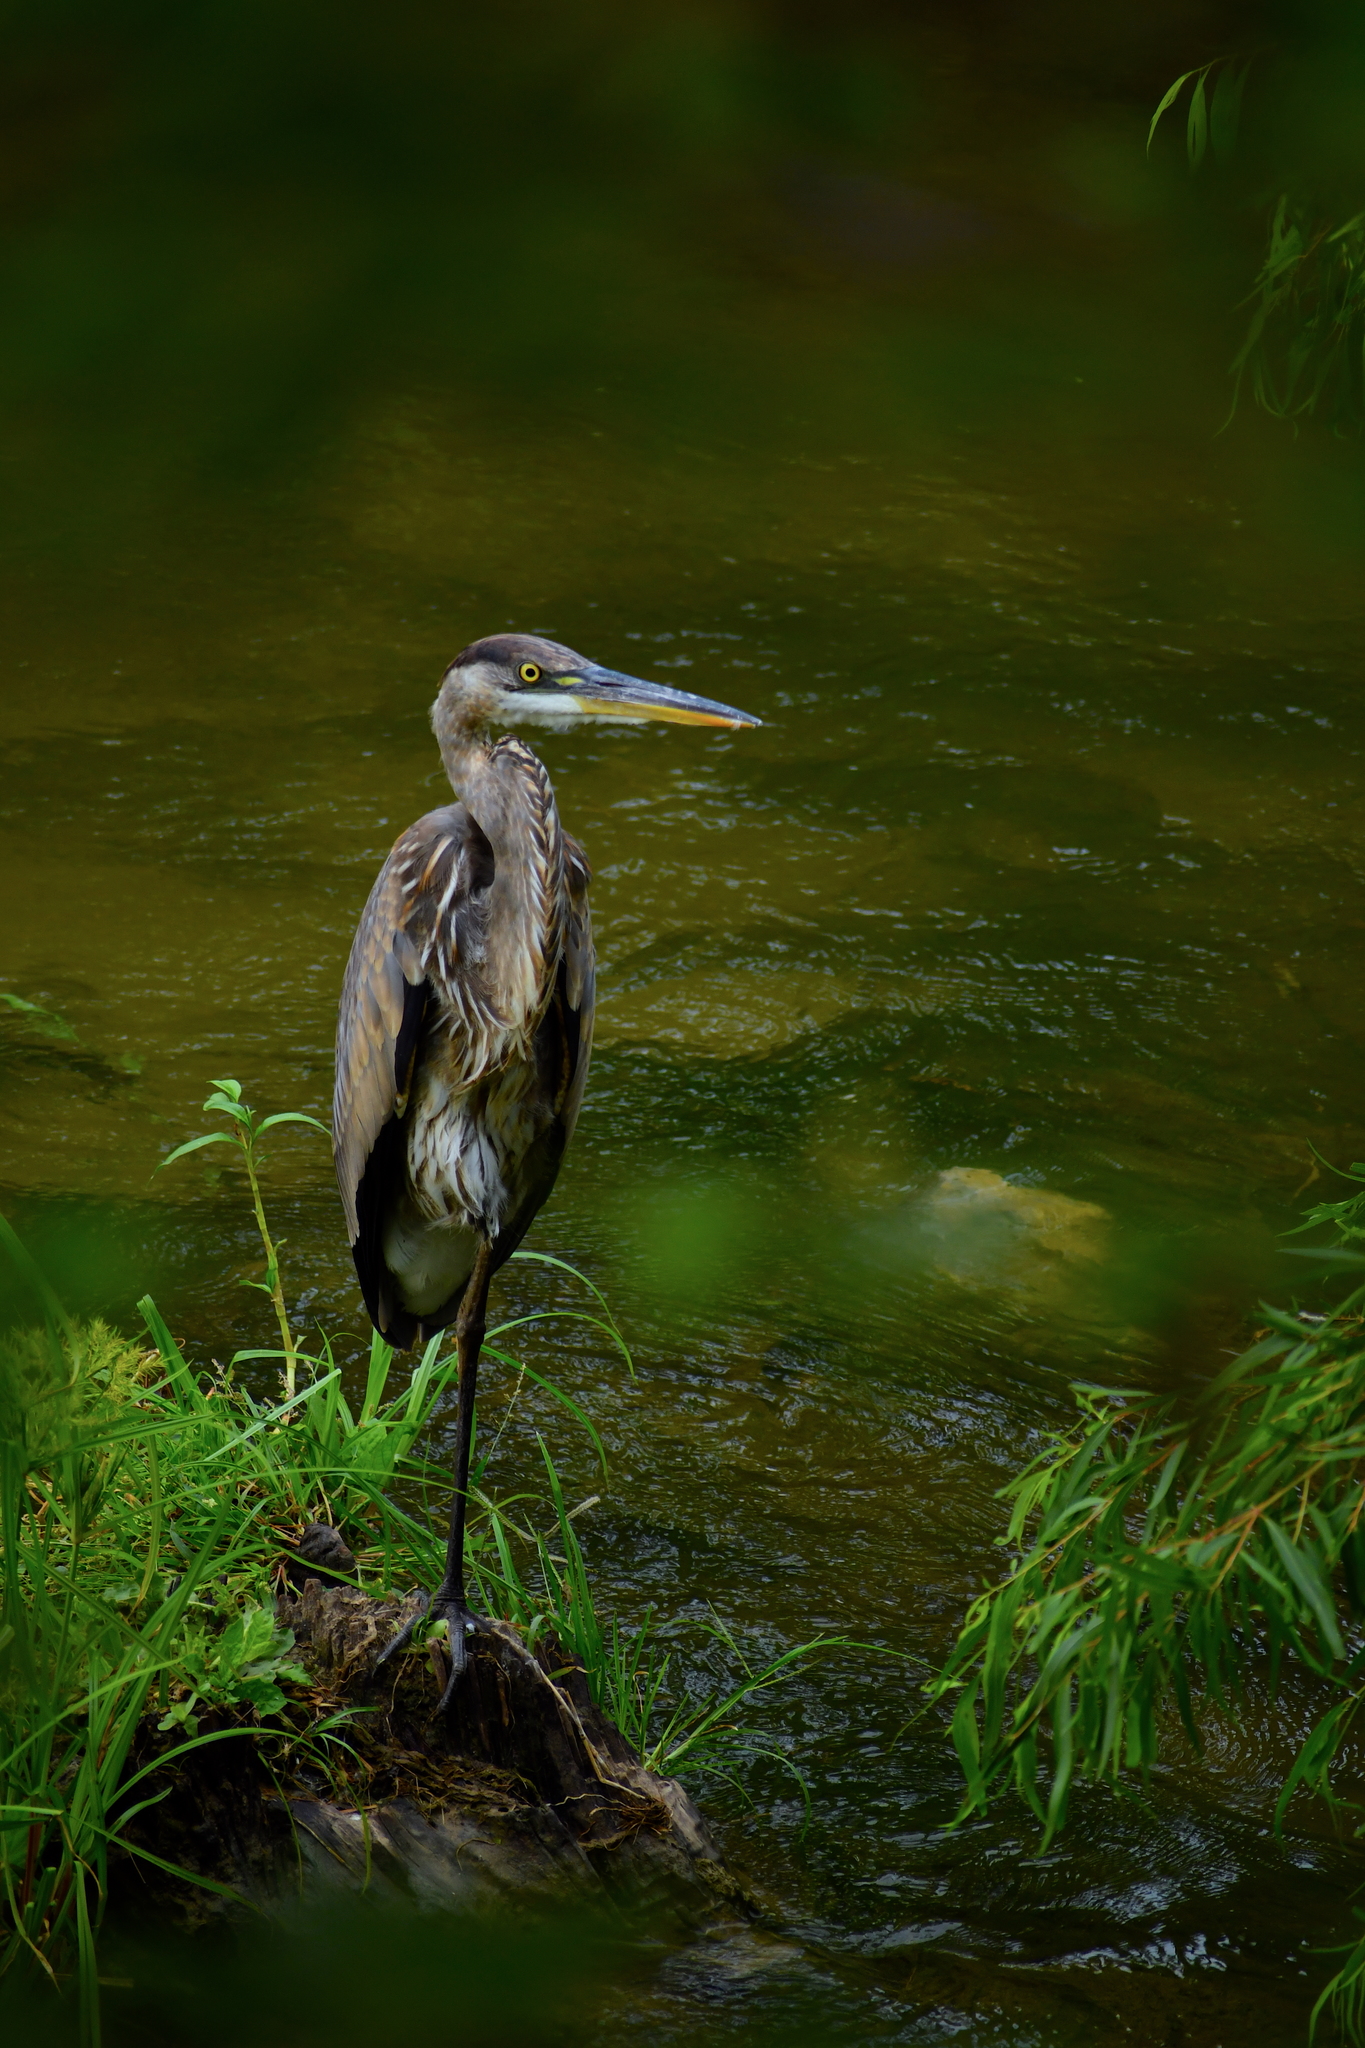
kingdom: Animalia
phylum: Chordata
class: Aves
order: Pelecaniformes
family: Ardeidae
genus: Ardea
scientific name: Ardea herodias
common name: Great blue heron
